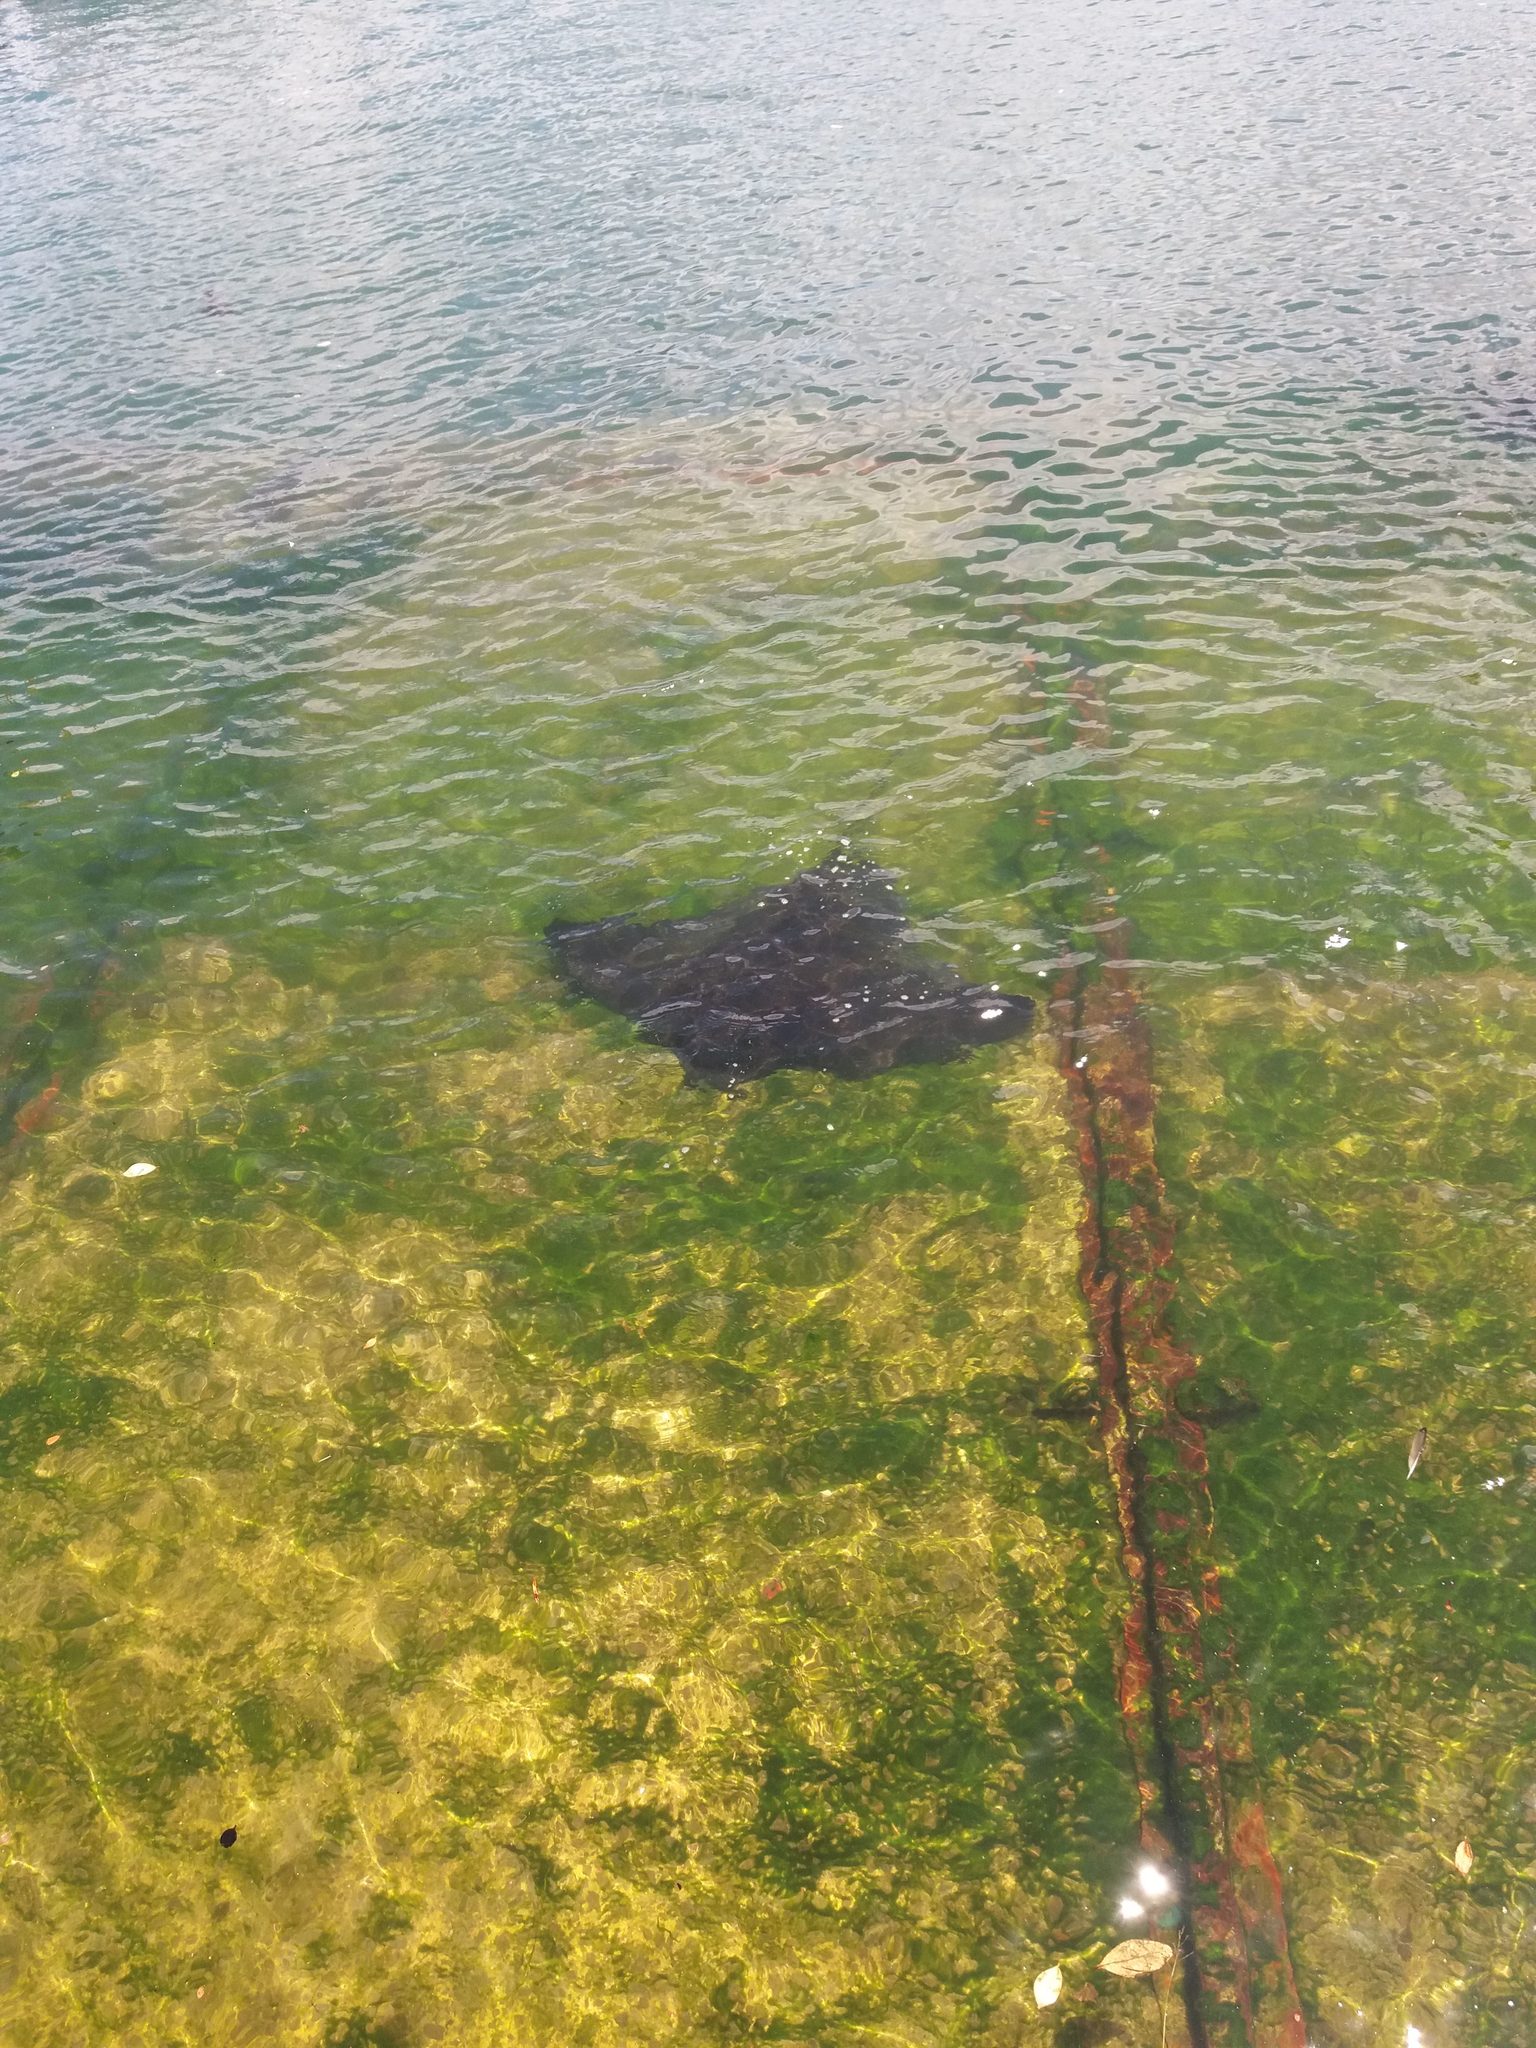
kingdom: Animalia
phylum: Chordata
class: Elasmobranchii
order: Myliobatiformes
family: Myliobatidae
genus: Myliobatis
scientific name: Myliobatis tenuicaudatus
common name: Eagle ray
